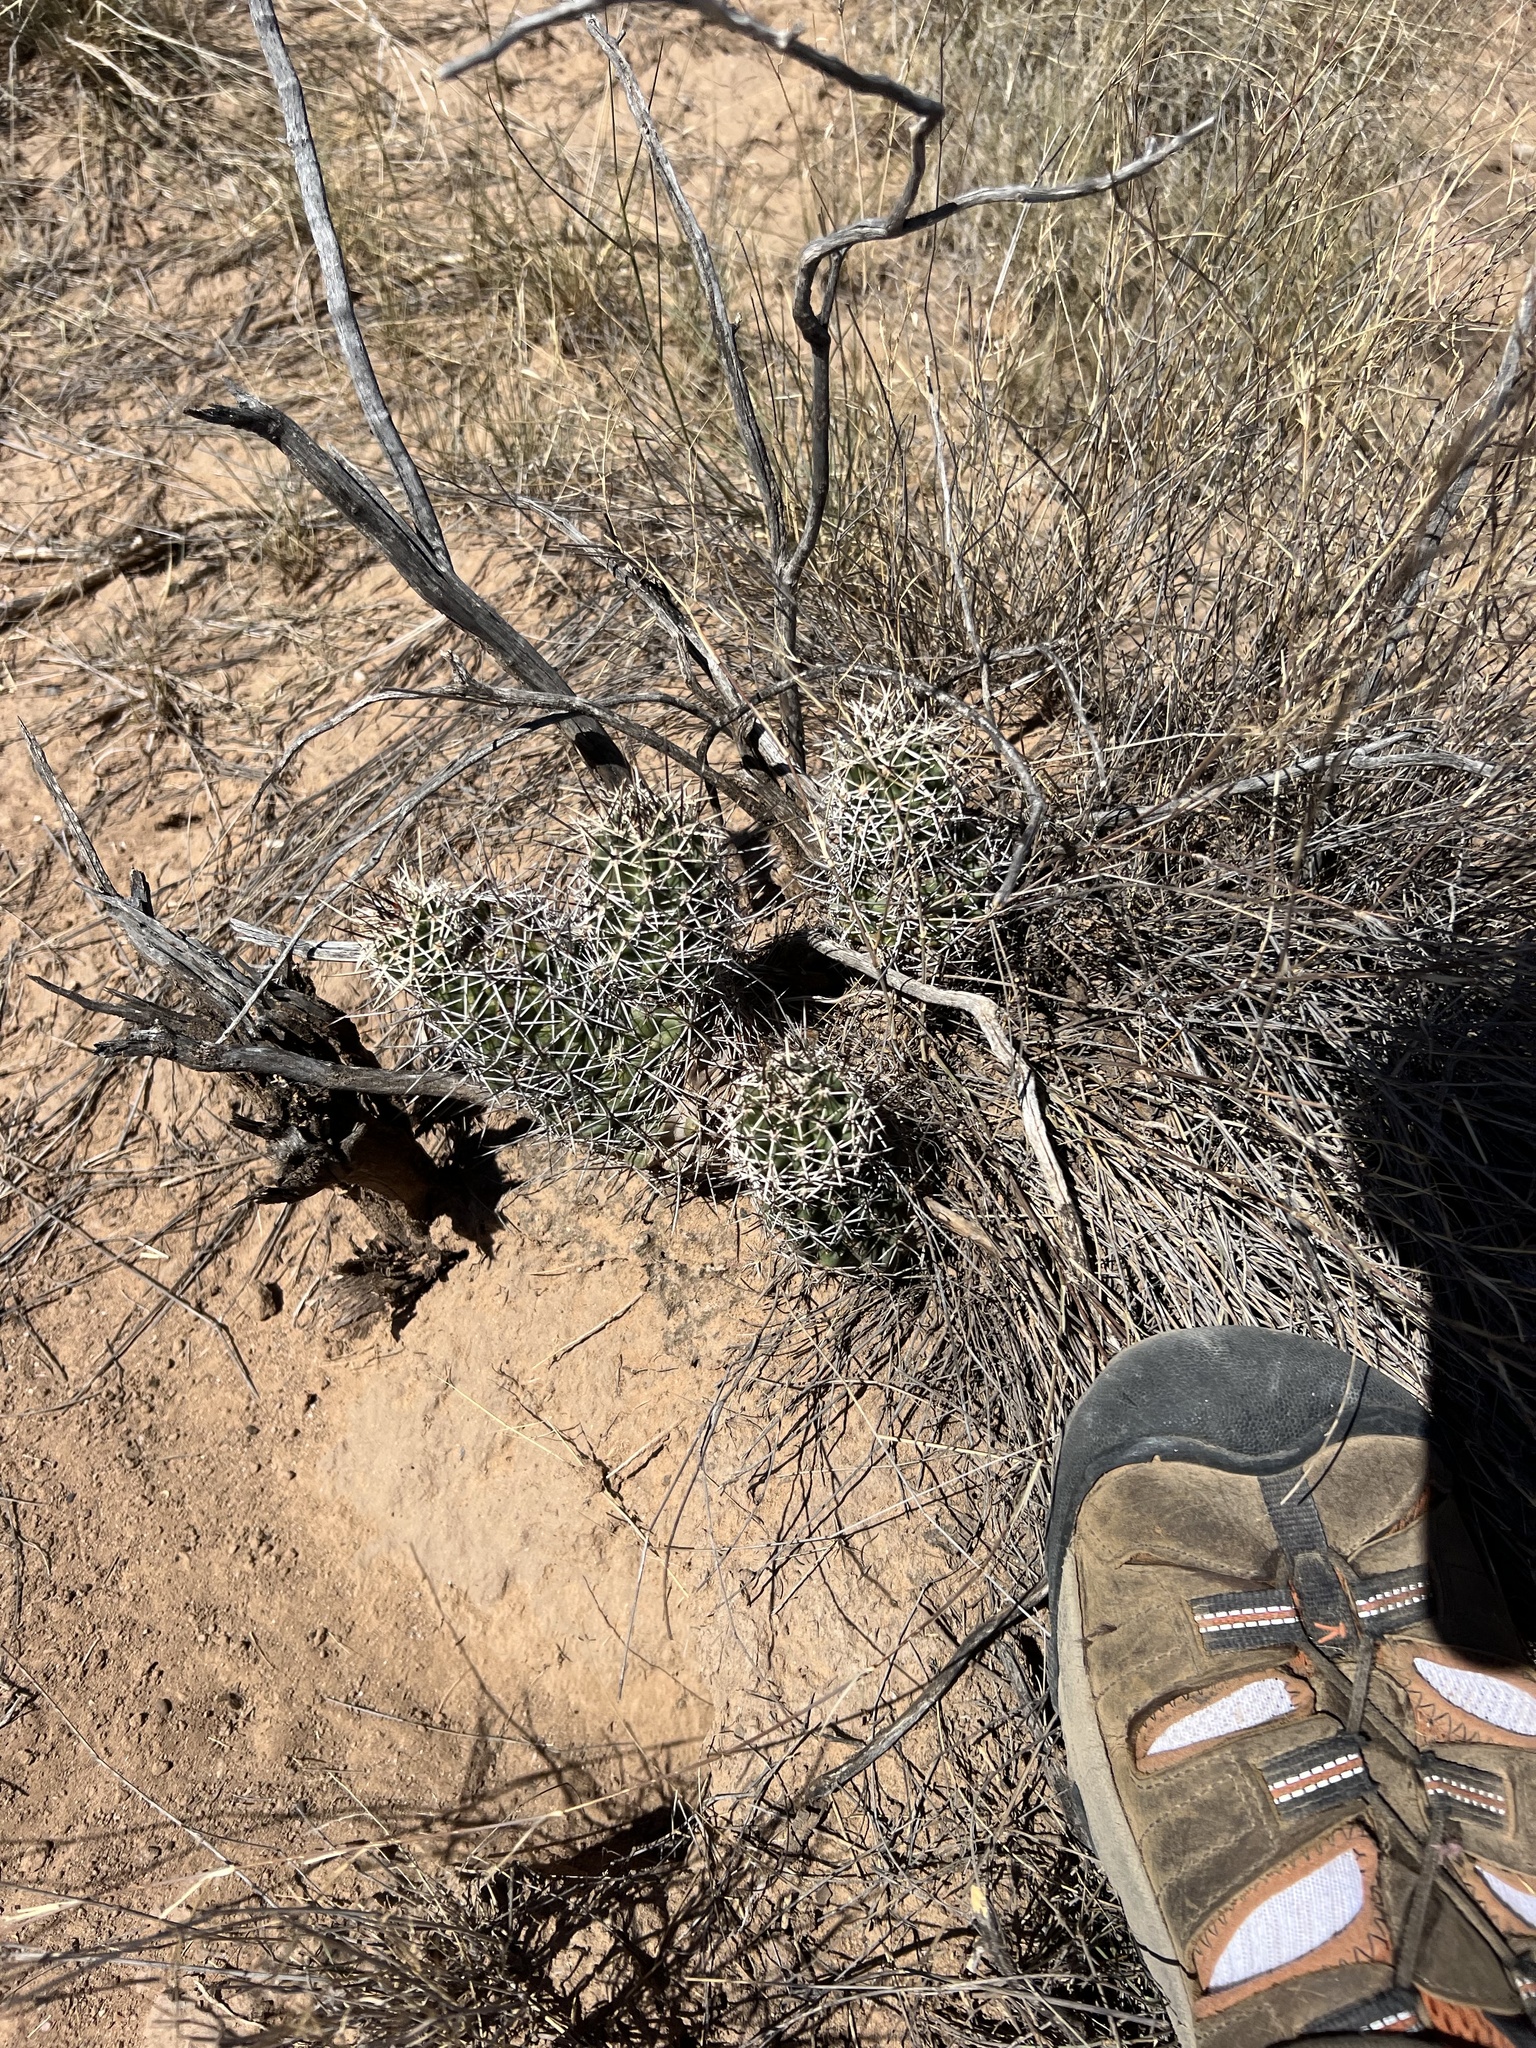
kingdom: Plantae
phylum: Tracheophyta
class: Magnoliopsida
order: Caryophyllales
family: Cactaceae
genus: Echinocereus
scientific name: Echinocereus fendleri
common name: Fendler's hedgehog cactus
